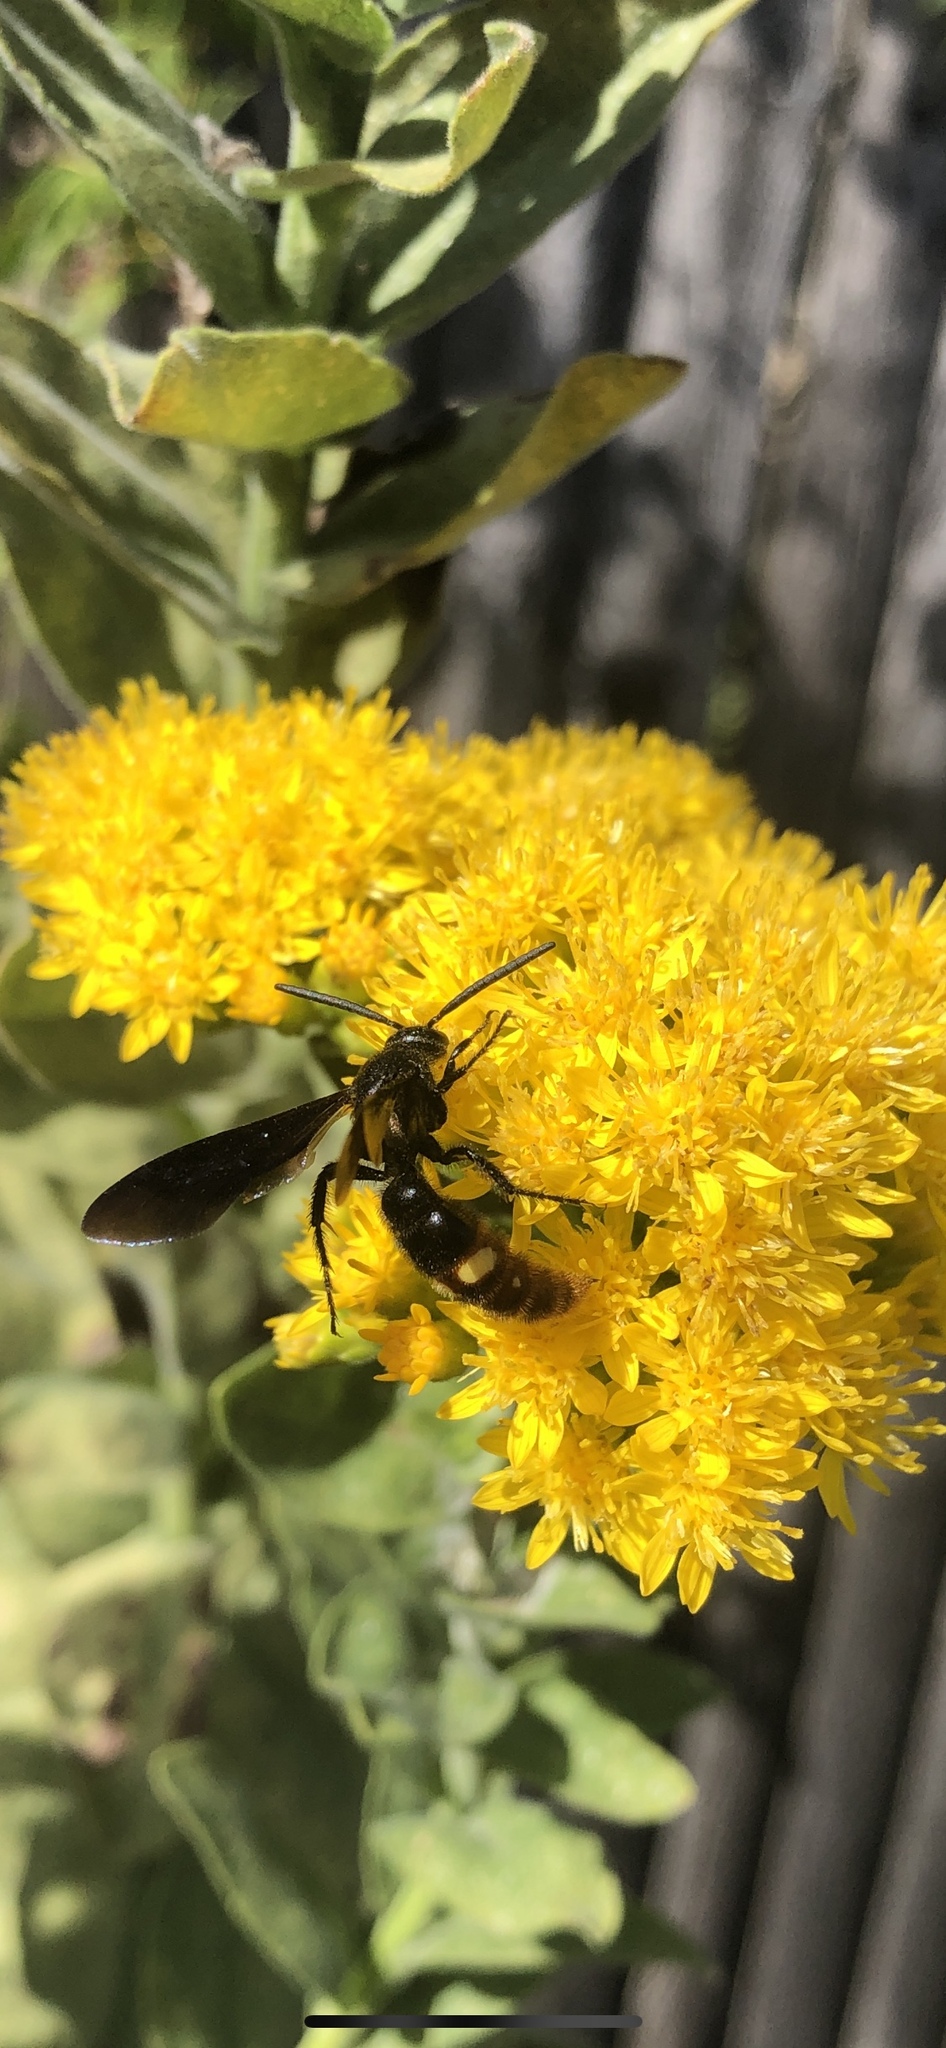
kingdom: Animalia
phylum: Arthropoda
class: Insecta
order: Hymenoptera
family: Scoliidae
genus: Scolia
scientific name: Scolia dubia
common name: Blue-winged scoliid wasp
